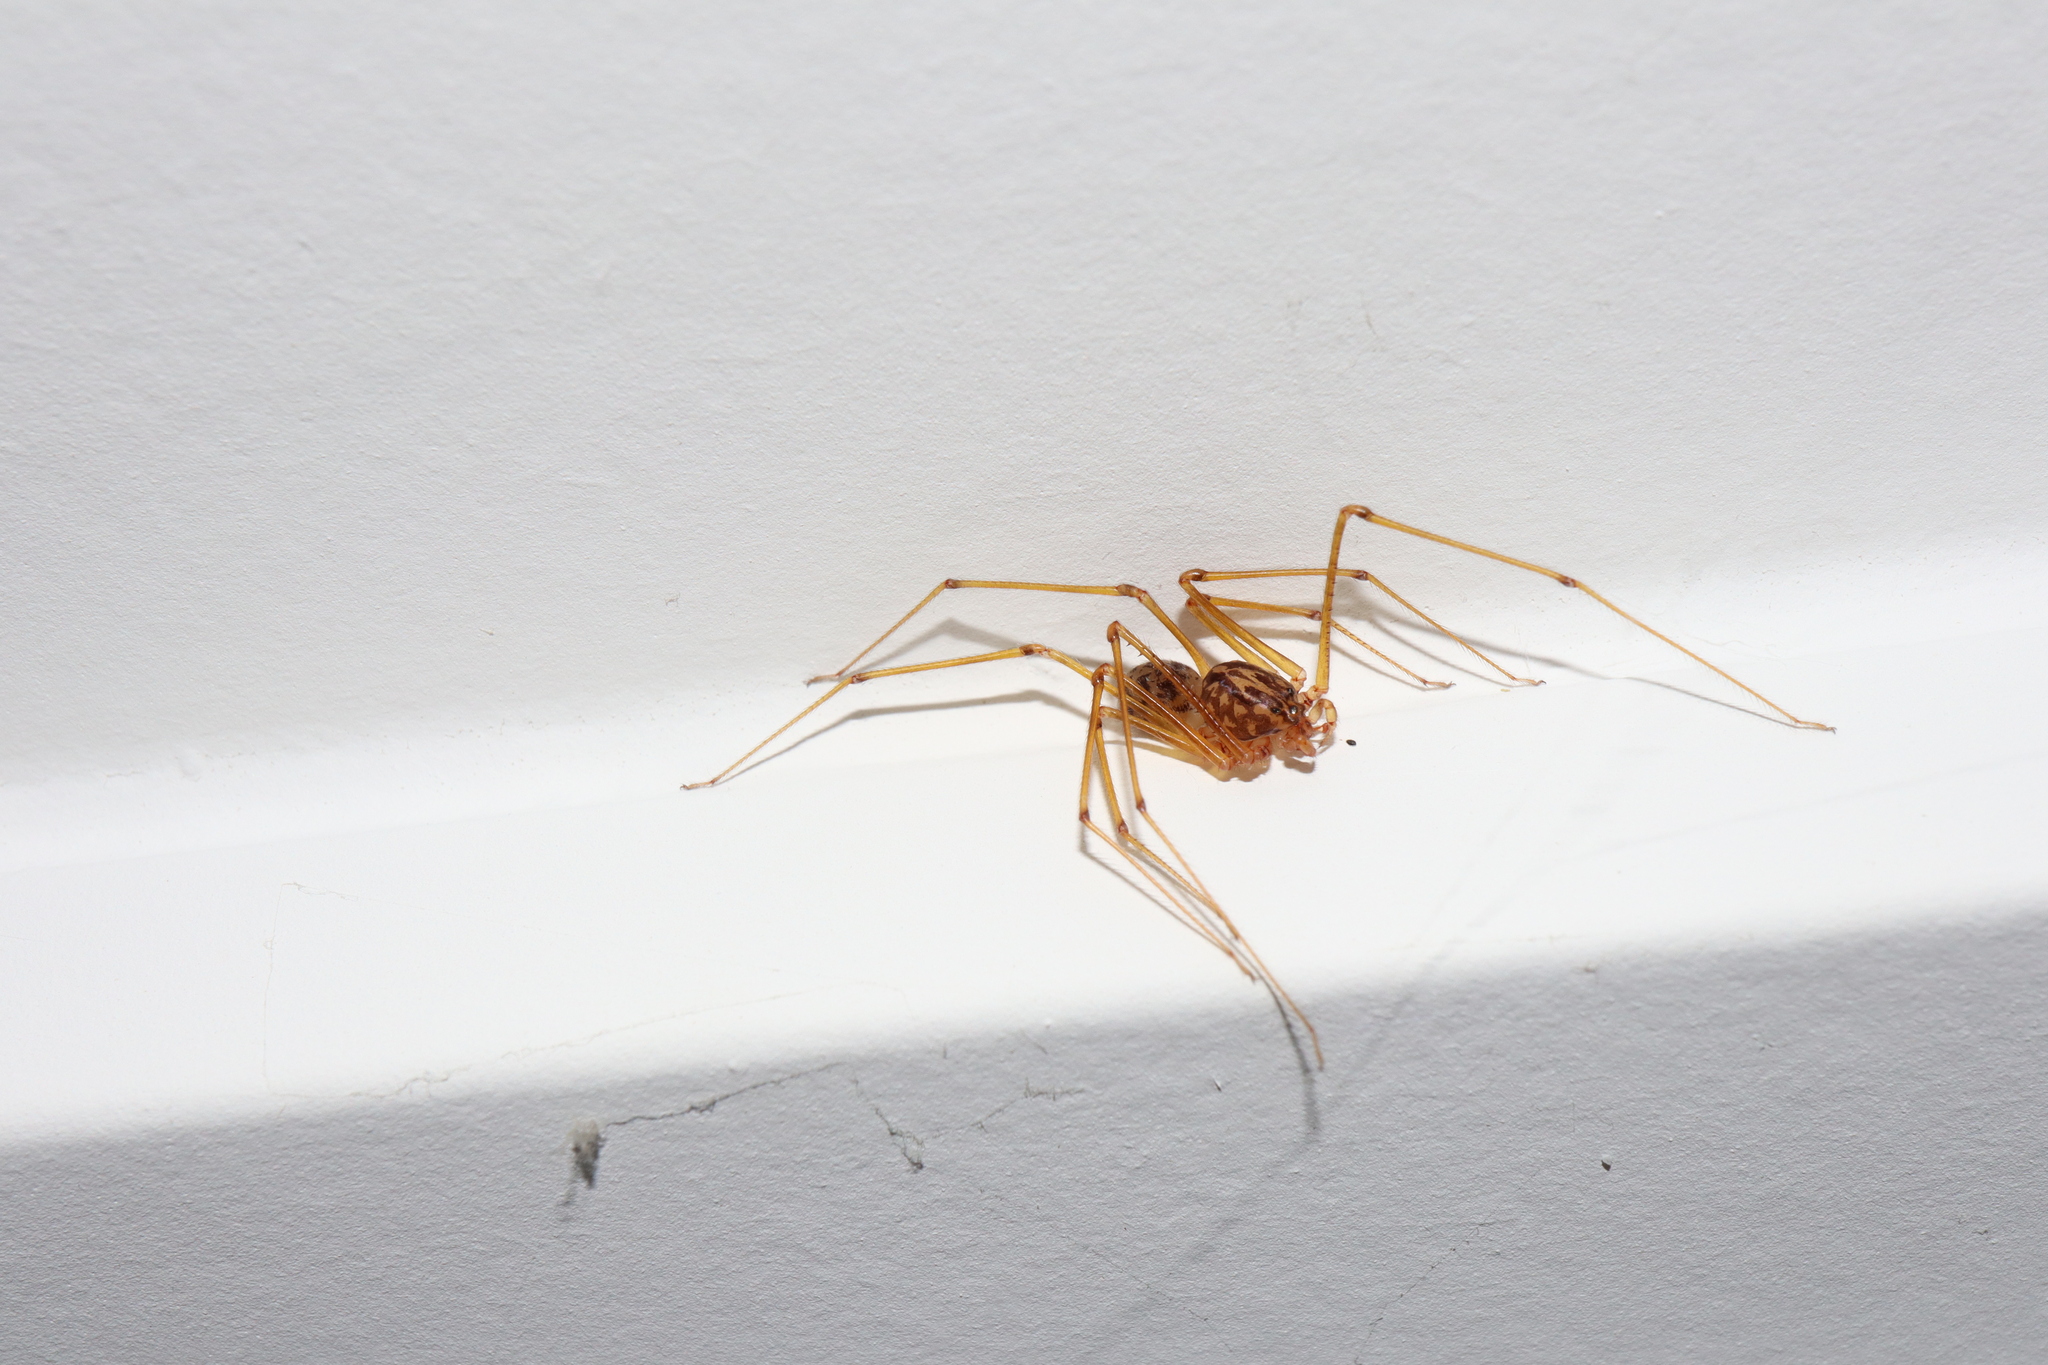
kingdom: Animalia
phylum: Arthropoda
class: Arachnida
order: Araneae
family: Scytodidae
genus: Scytodes
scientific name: Scytodes univittata
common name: Spitting spider
